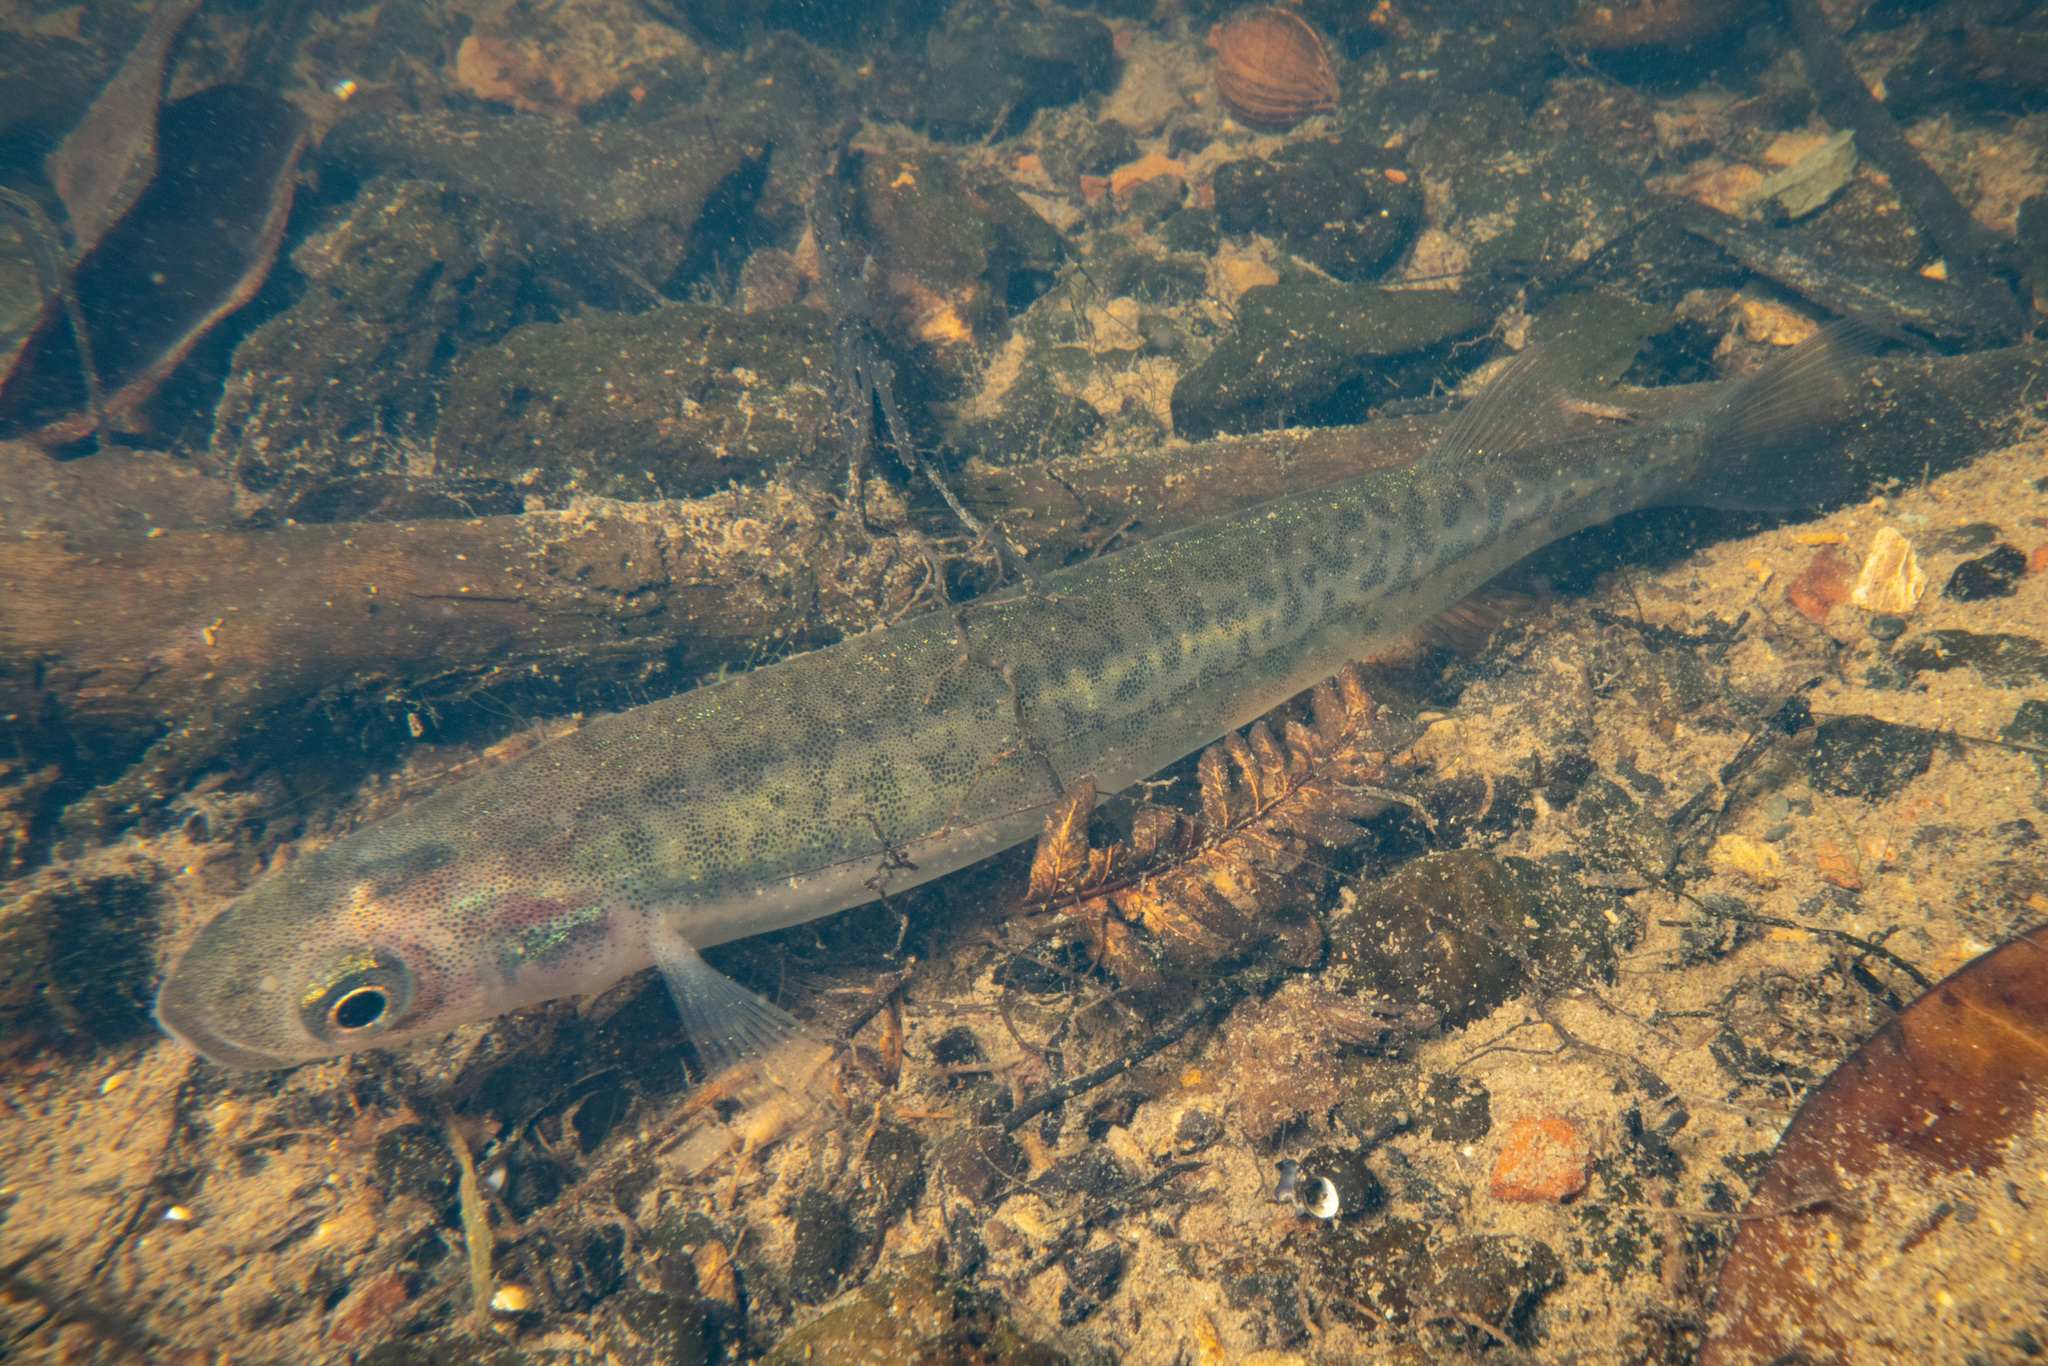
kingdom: Animalia
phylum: Chordata
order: Osmeriformes
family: Galaxiidae
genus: Galaxias
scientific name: Galaxias maculatus
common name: Common galaxias
